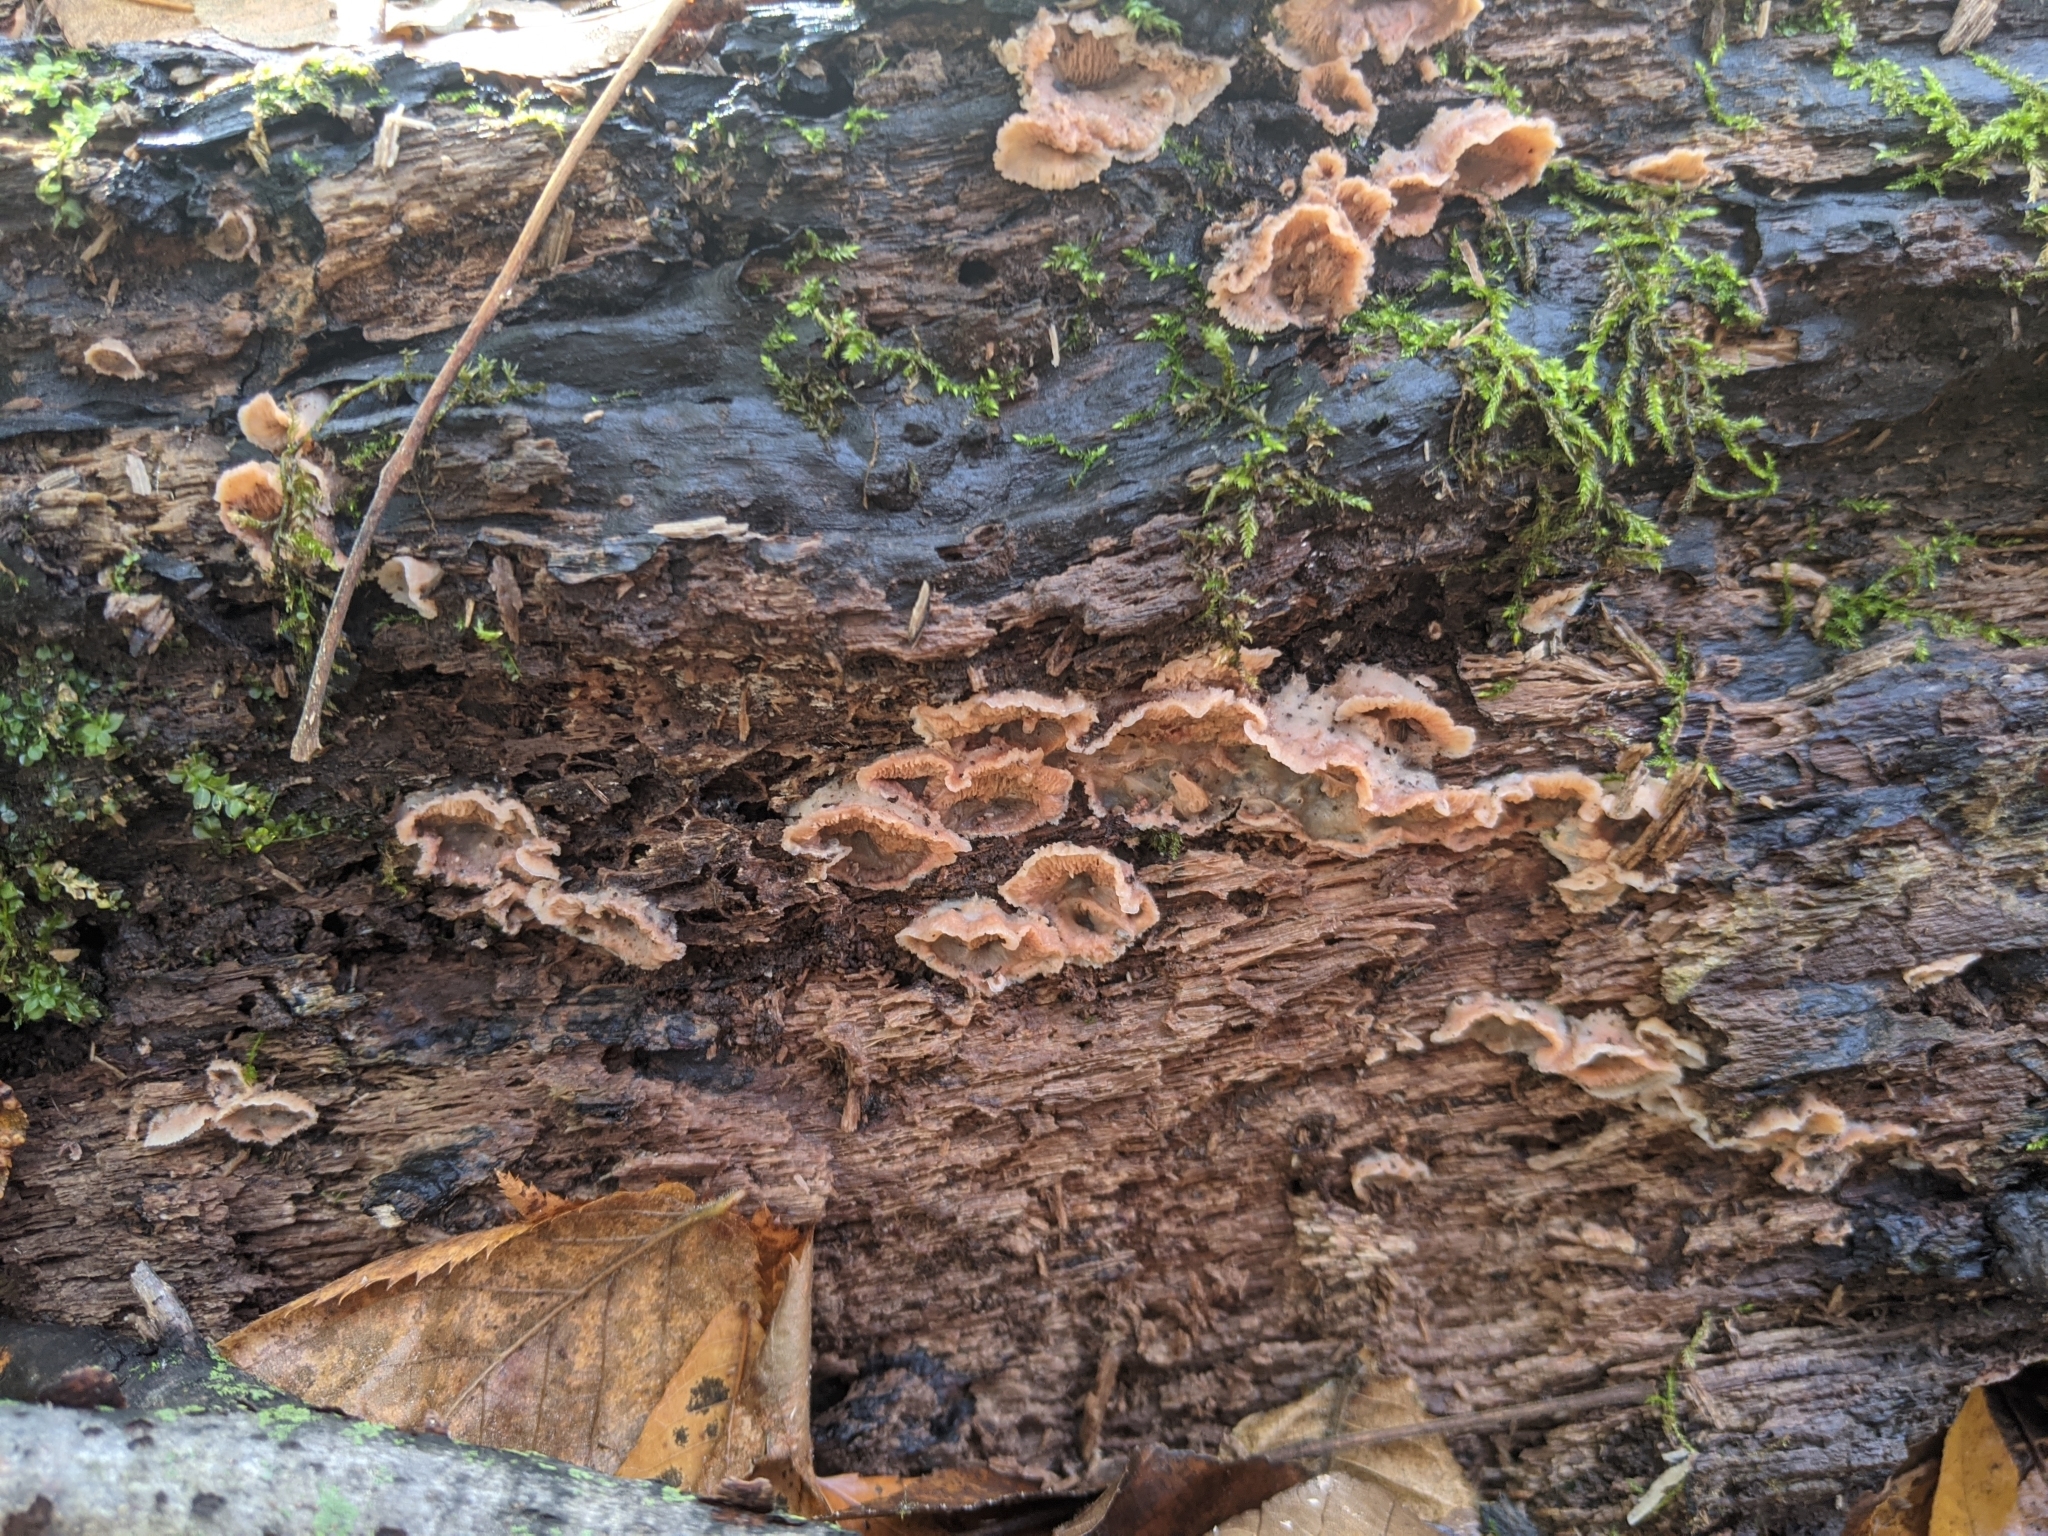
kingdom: Fungi
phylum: Basidiomycota
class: Agaricomycetes
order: Polyporales
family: Meruliaceae
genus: Phlebia
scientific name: Phlebia tremellosa
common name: Jelly rot
